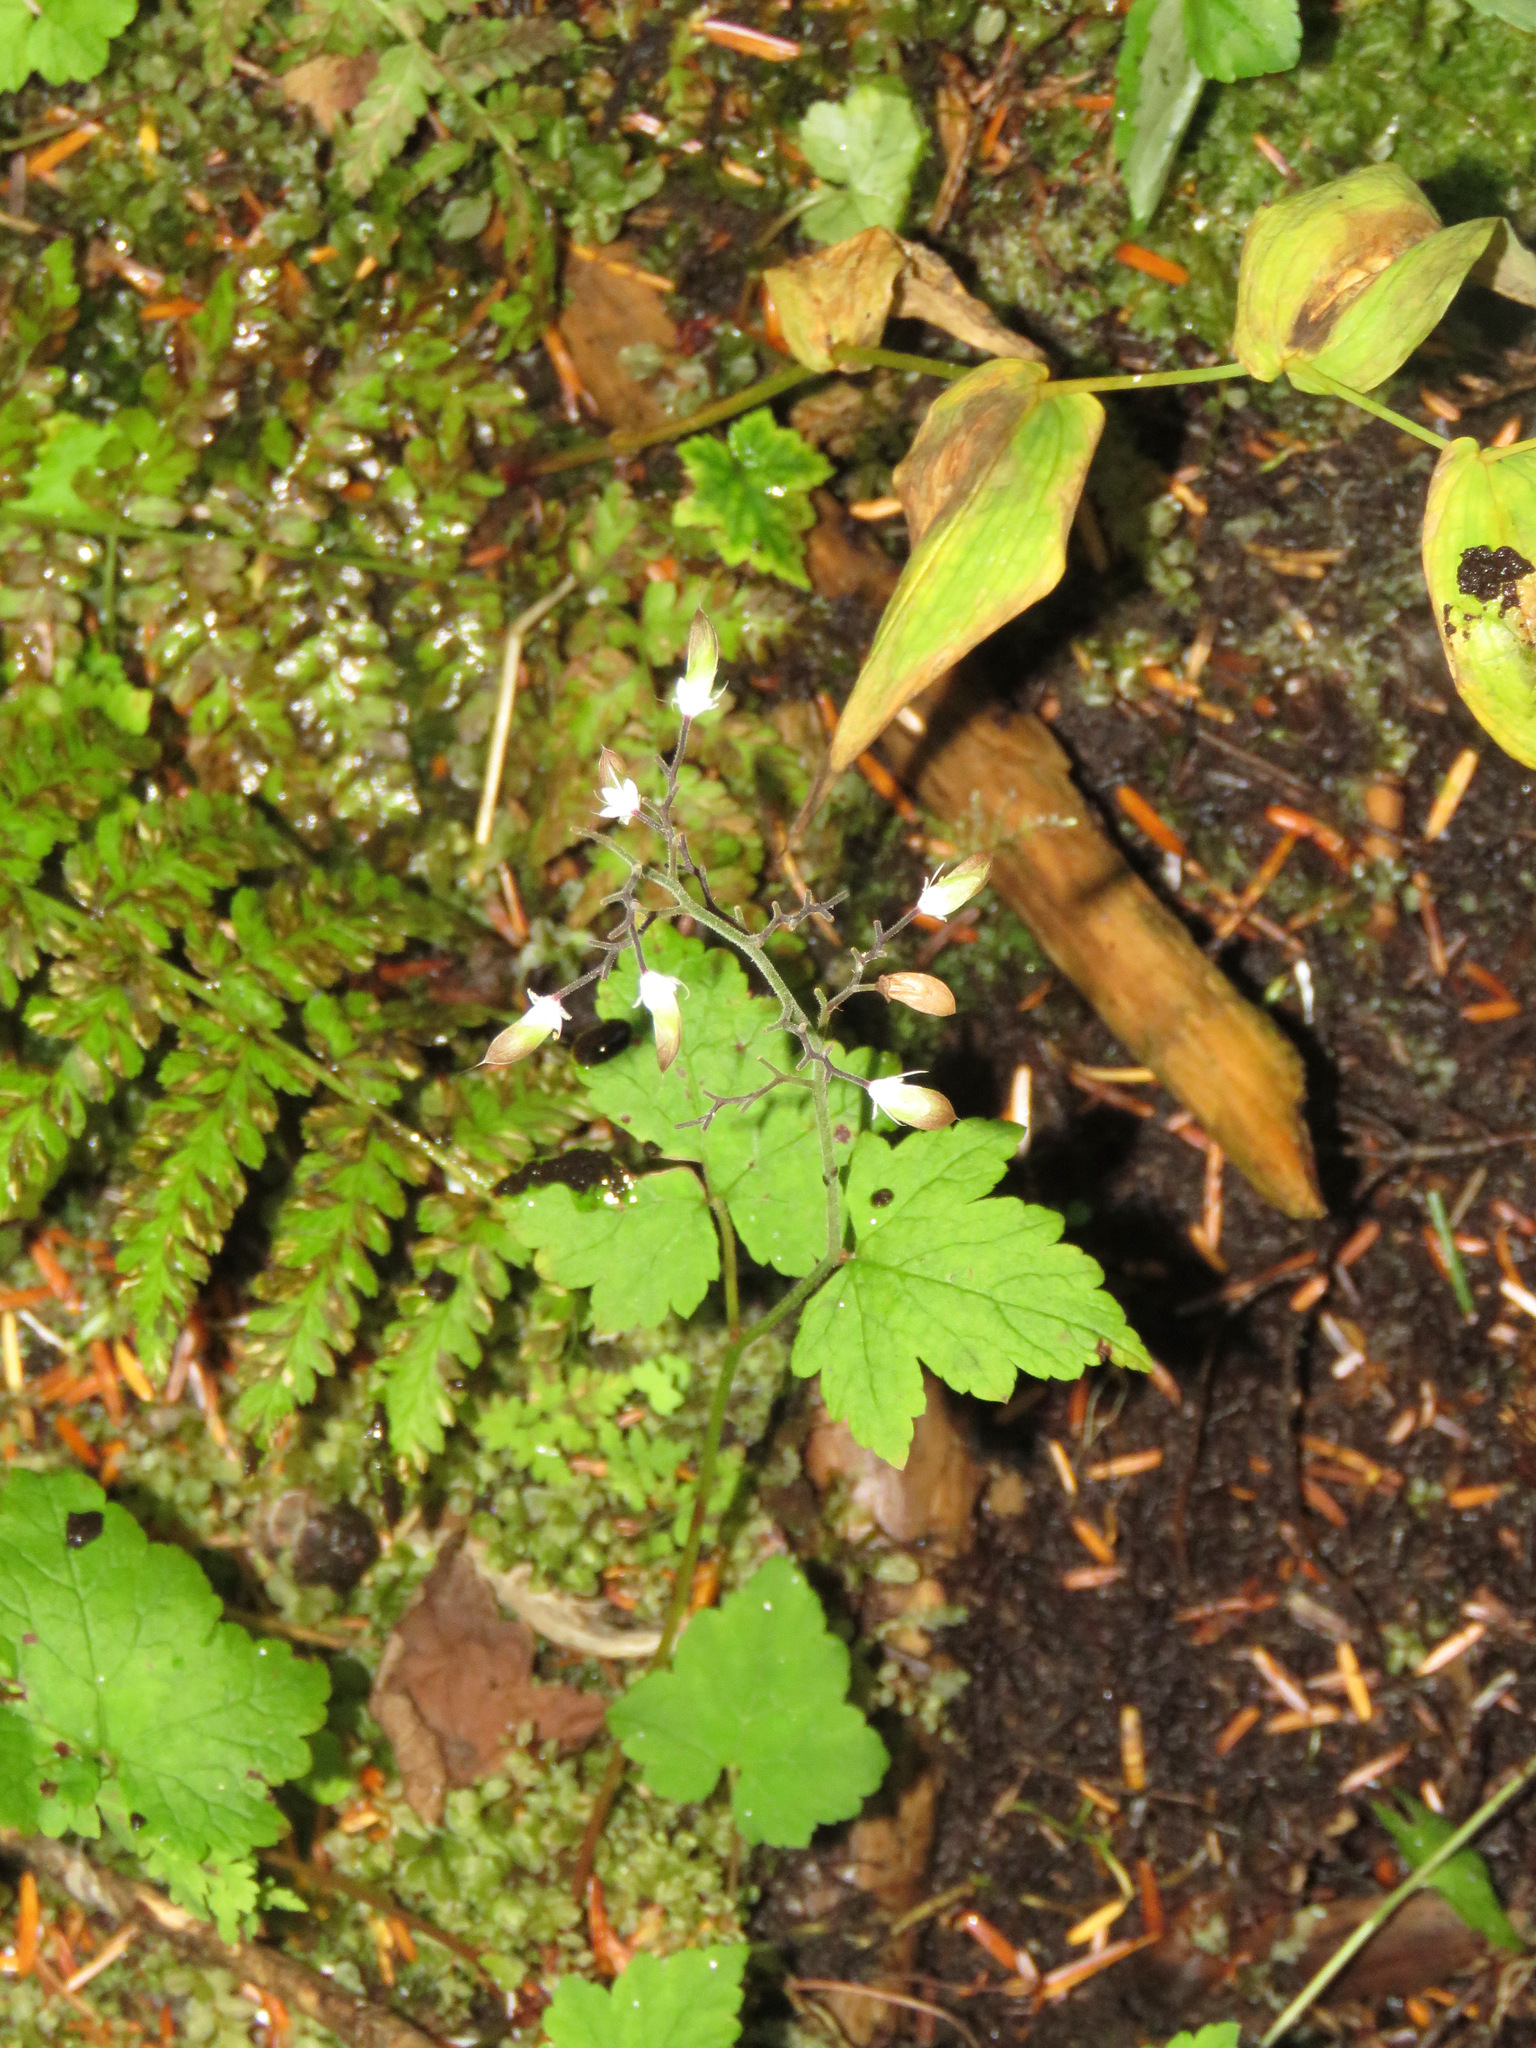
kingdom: Plantae
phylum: Tracheophyta
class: Magnoliopsida
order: Saxifragales
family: Saxifragaceae
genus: Tiarella
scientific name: Tiarella trifoliata
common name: Sugar-scoop
